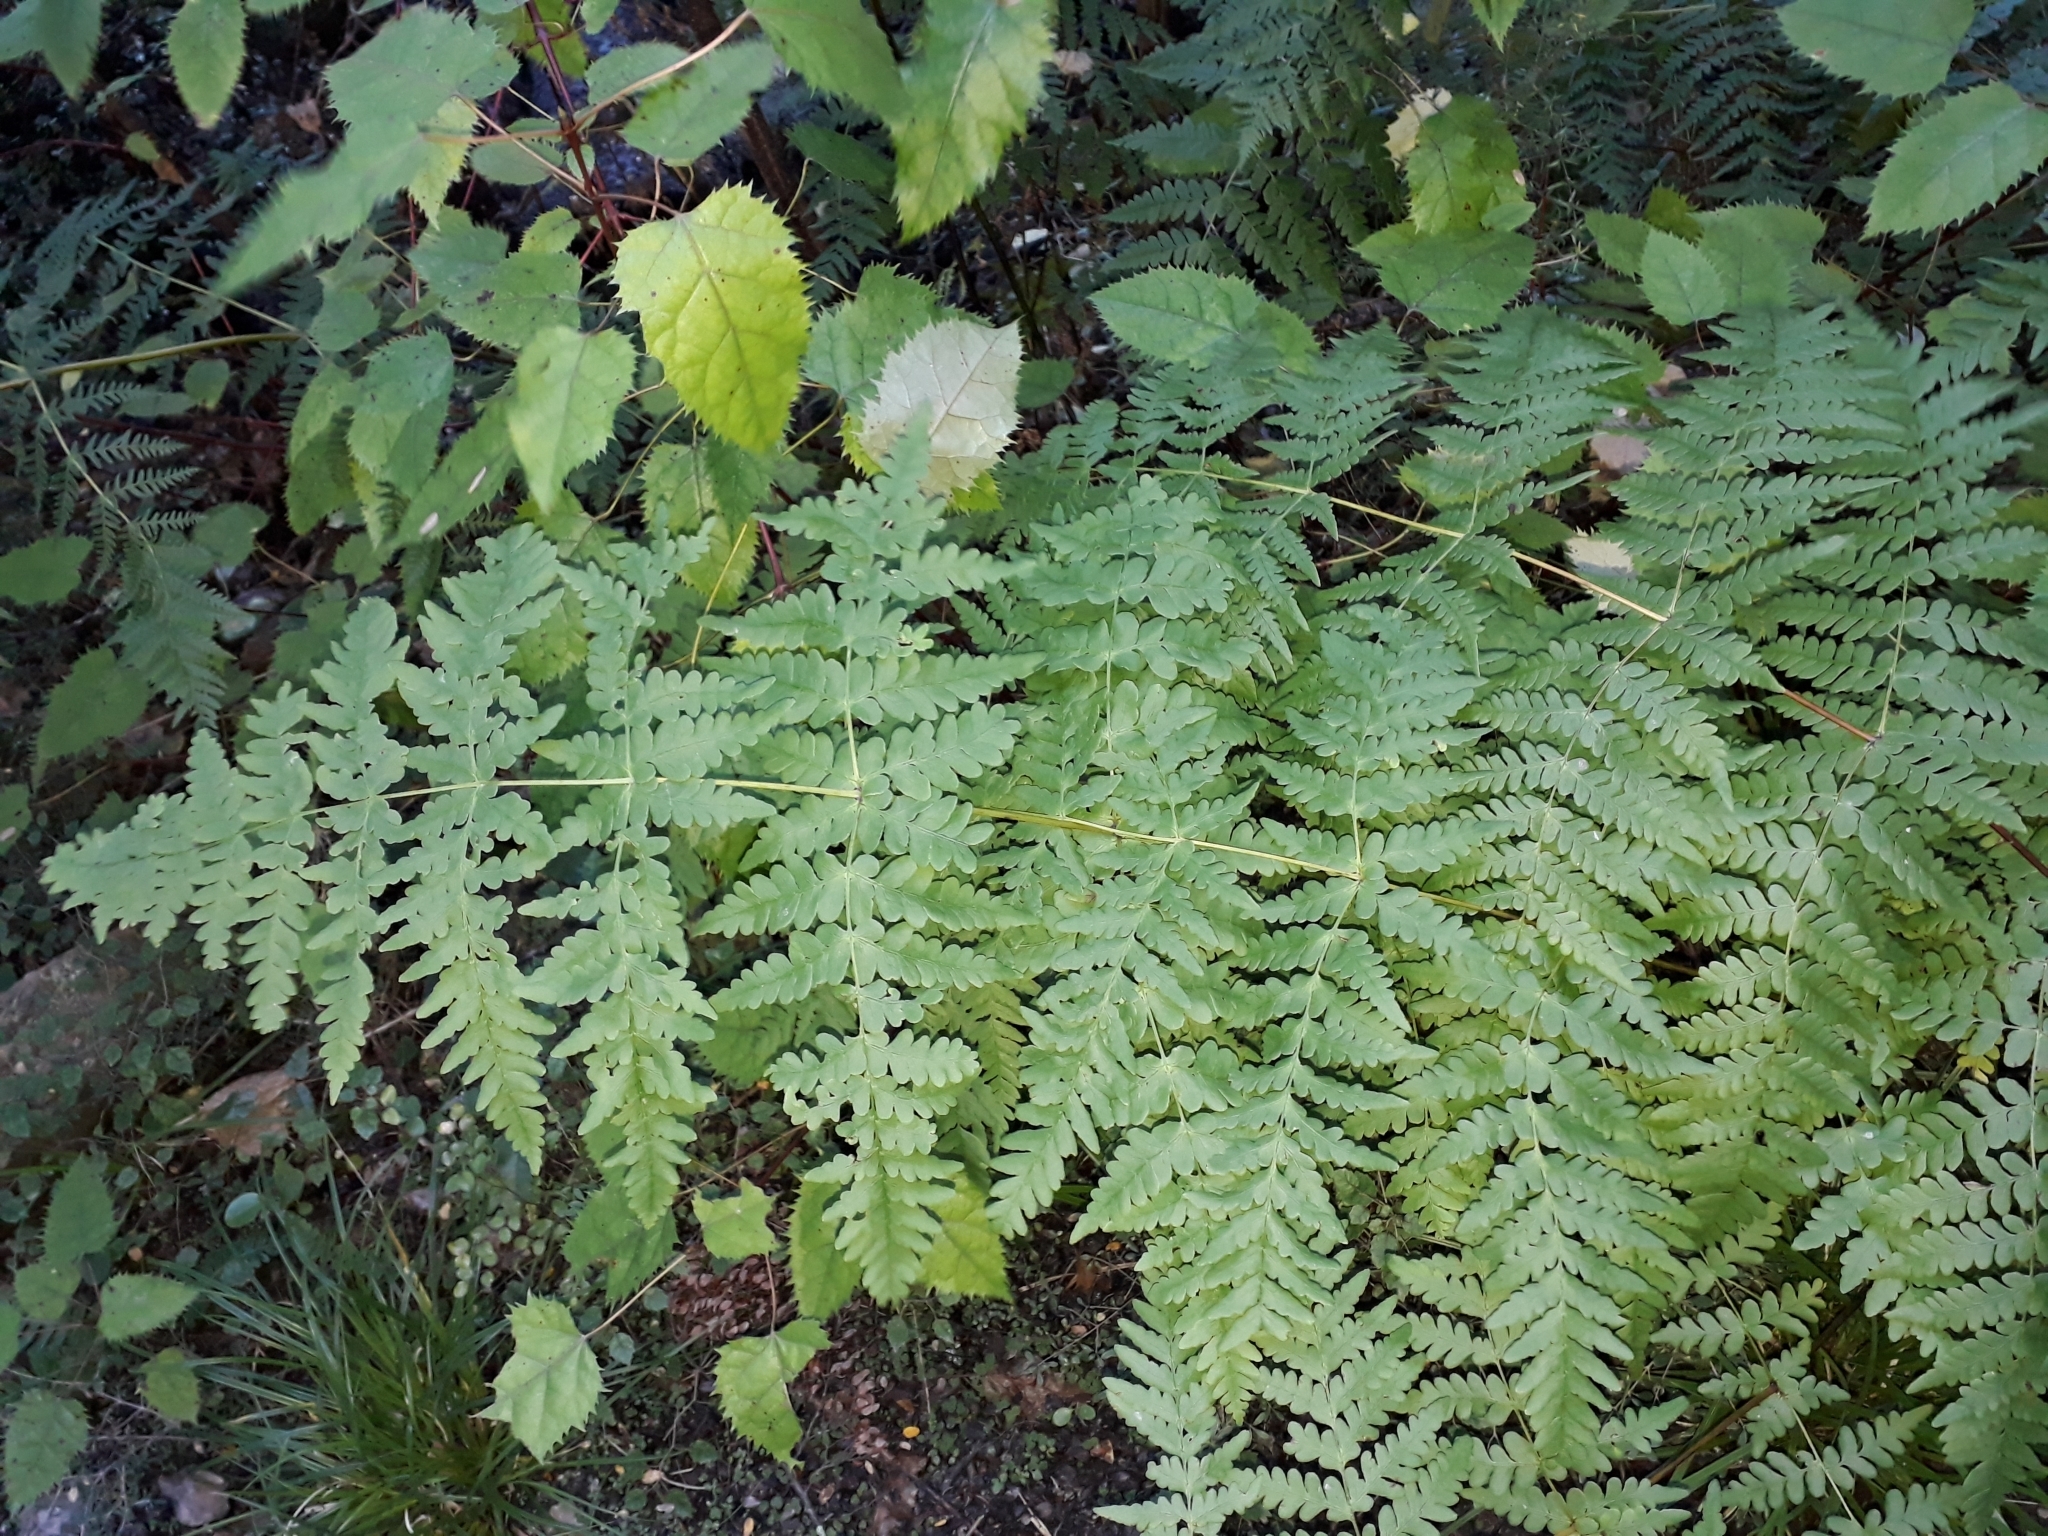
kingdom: Plantae
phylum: Tracheophyta
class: Polypodiopsida
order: Polypodiales
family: Dennstaedtiaceae
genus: Histiopteris
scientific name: Histiopteris incisa
